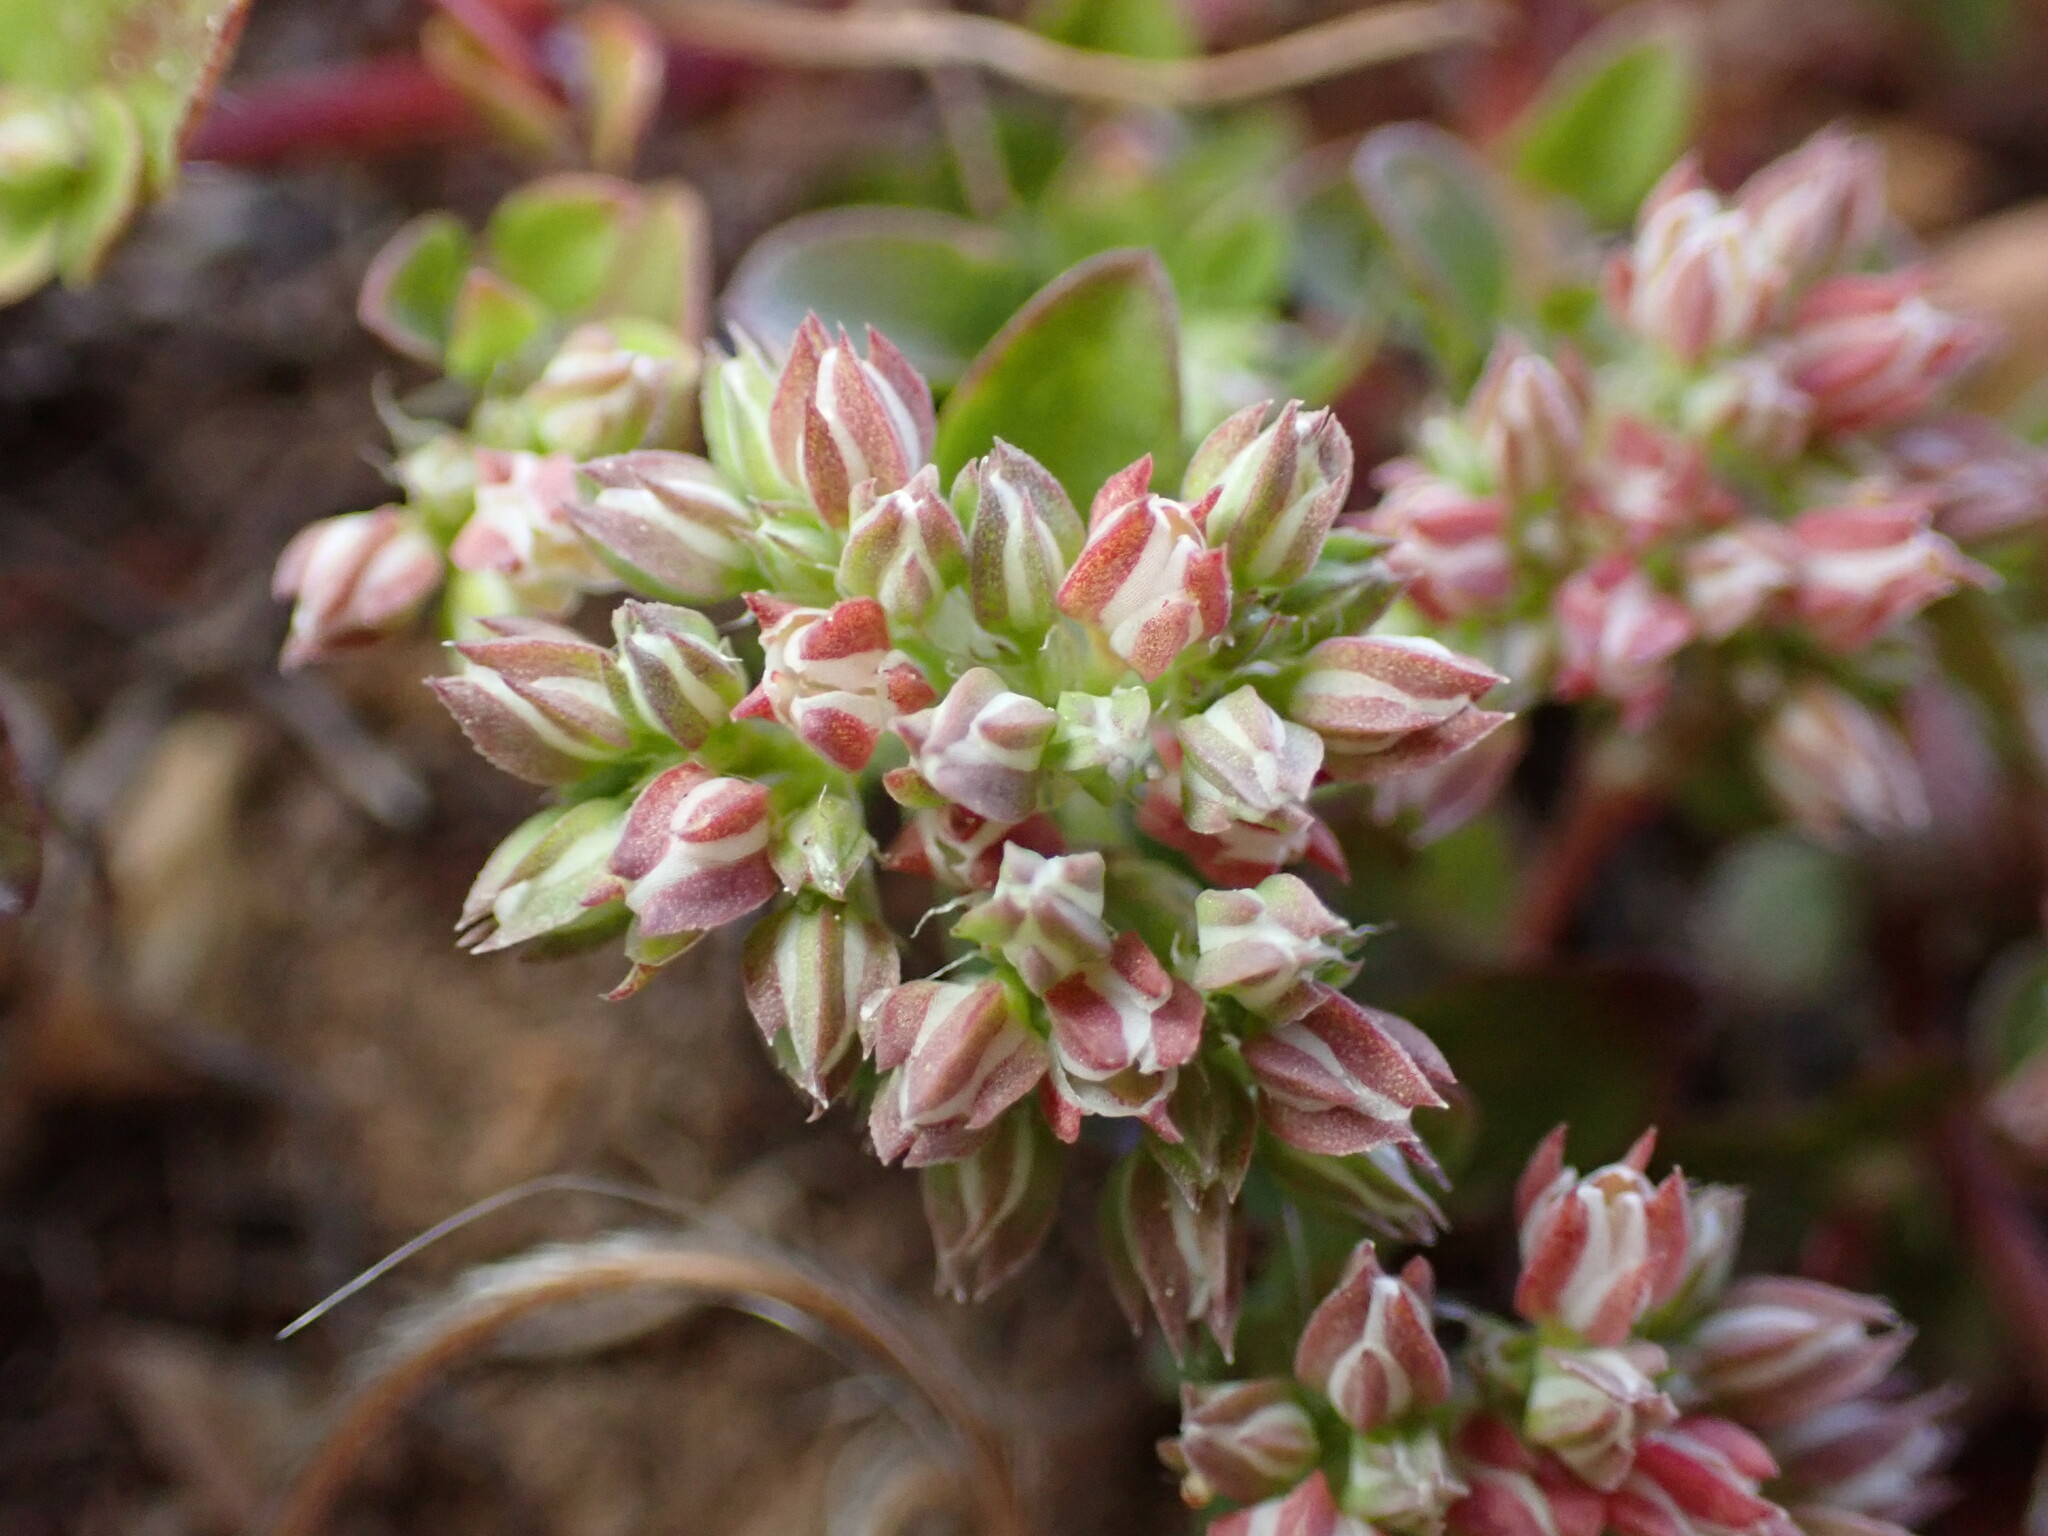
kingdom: Plantae
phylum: Tracheophyta
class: Magnoliopsida
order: Caryophyllales
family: Caryophyllaceae
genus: Polycarpon
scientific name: Polycarpon tetraphyllum
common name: Four-leaved all-seed
